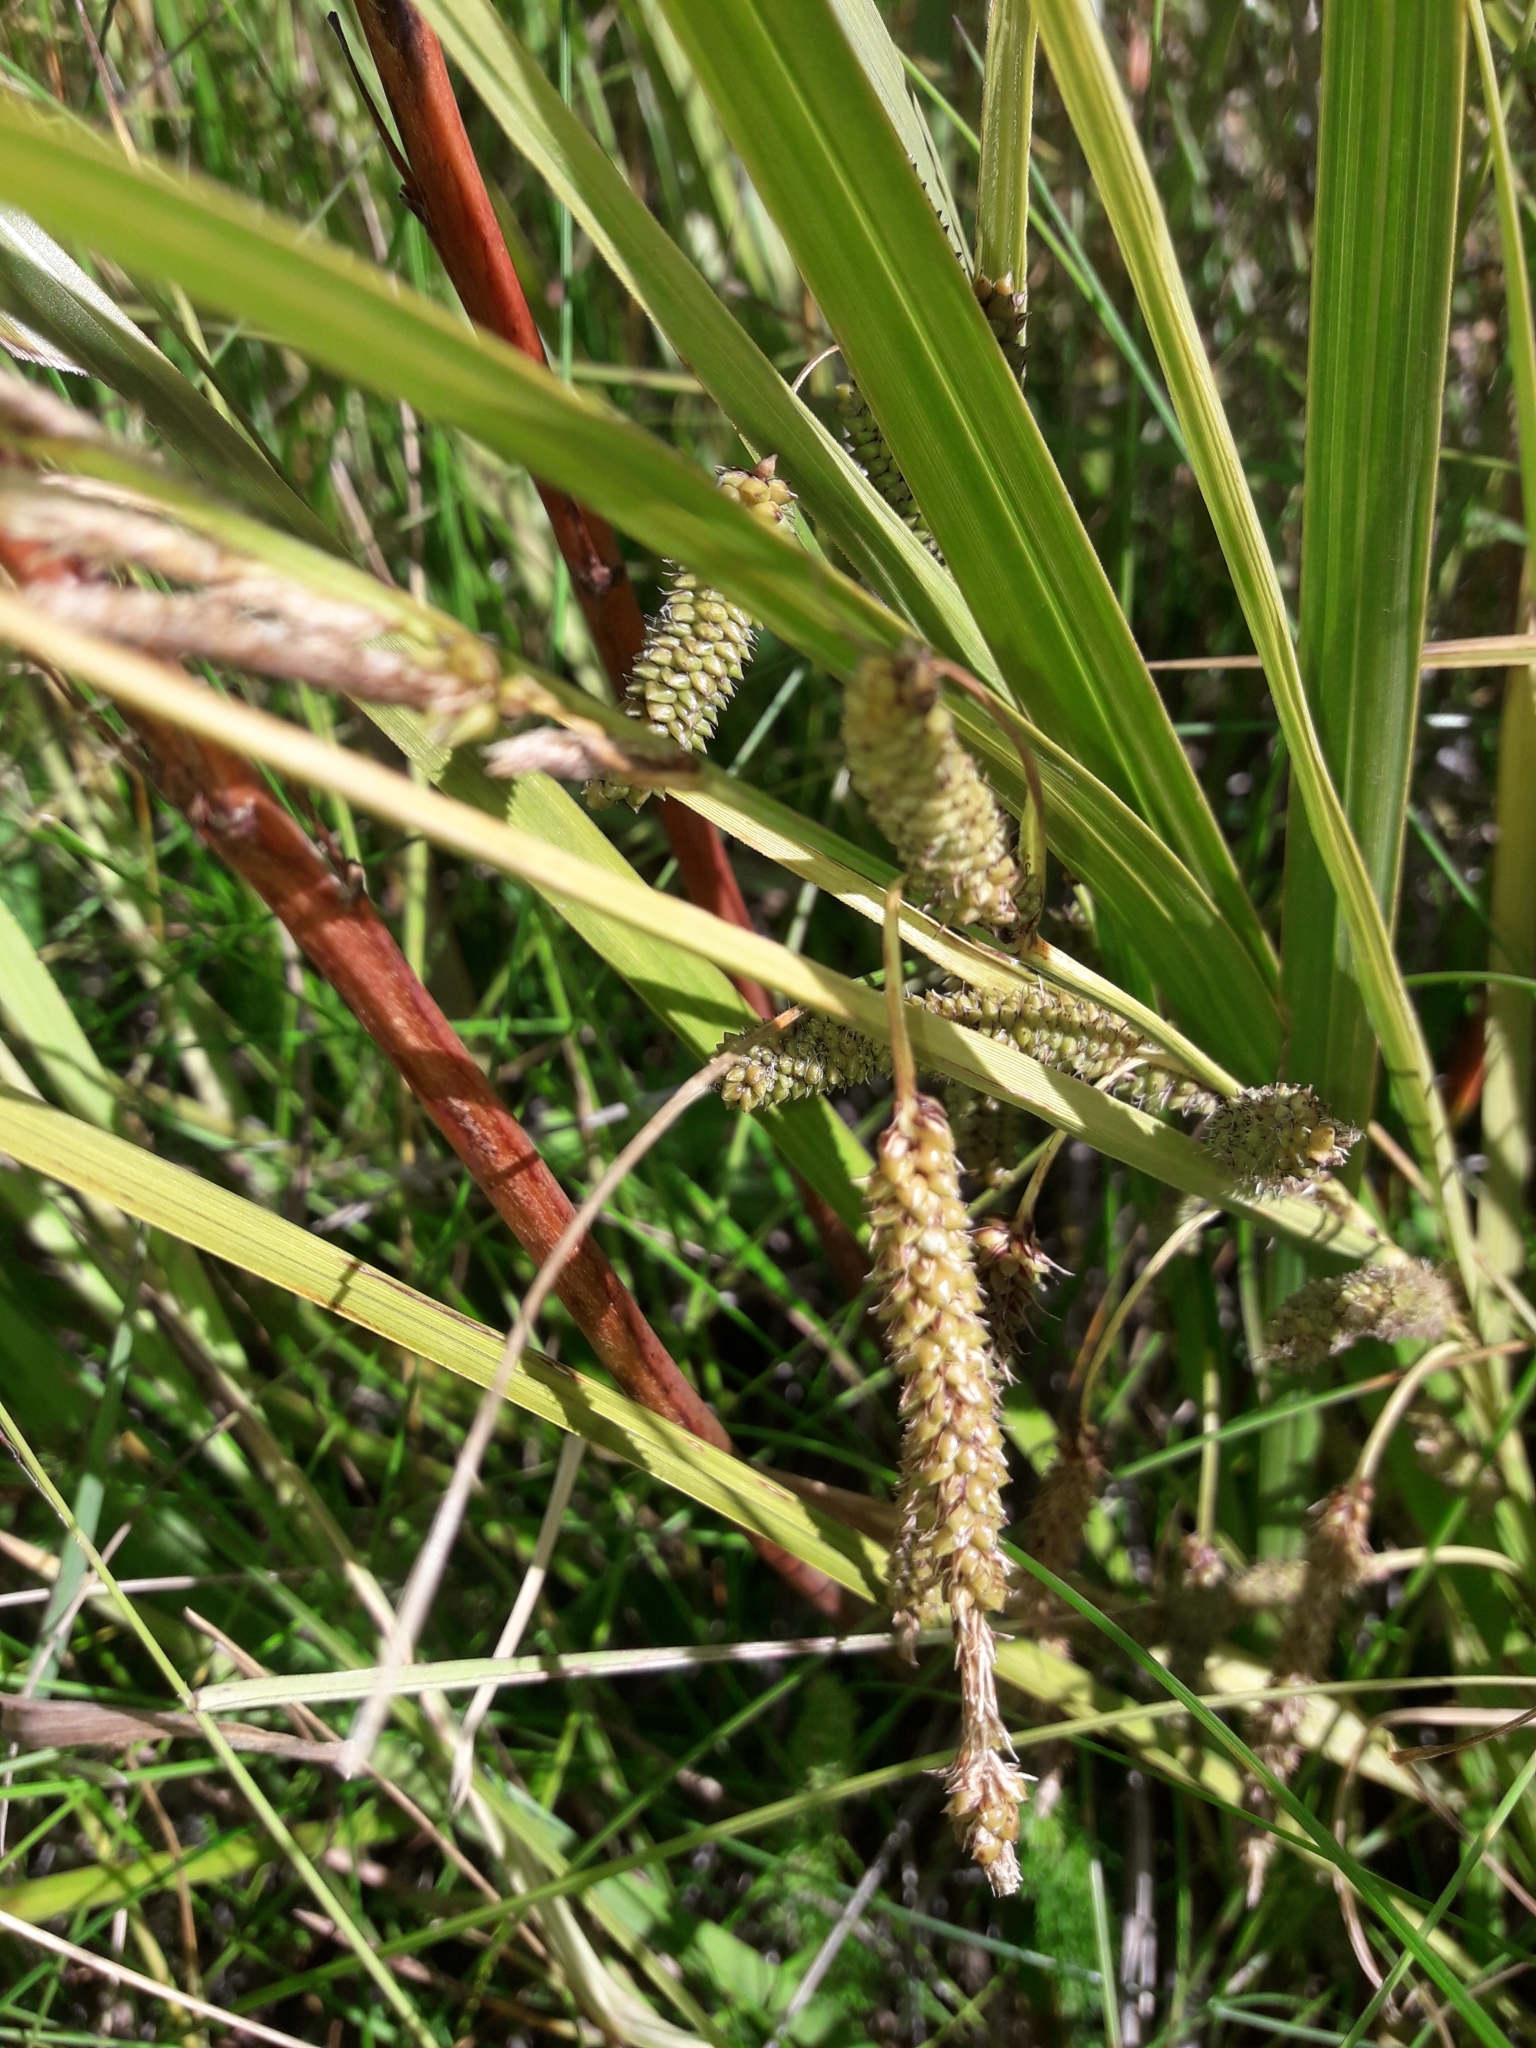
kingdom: Plantae
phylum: Tracheophyta
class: Liliopsida
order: Poales
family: Cyperaceae
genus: Carex
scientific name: Carex coriacea
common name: Rautahi
